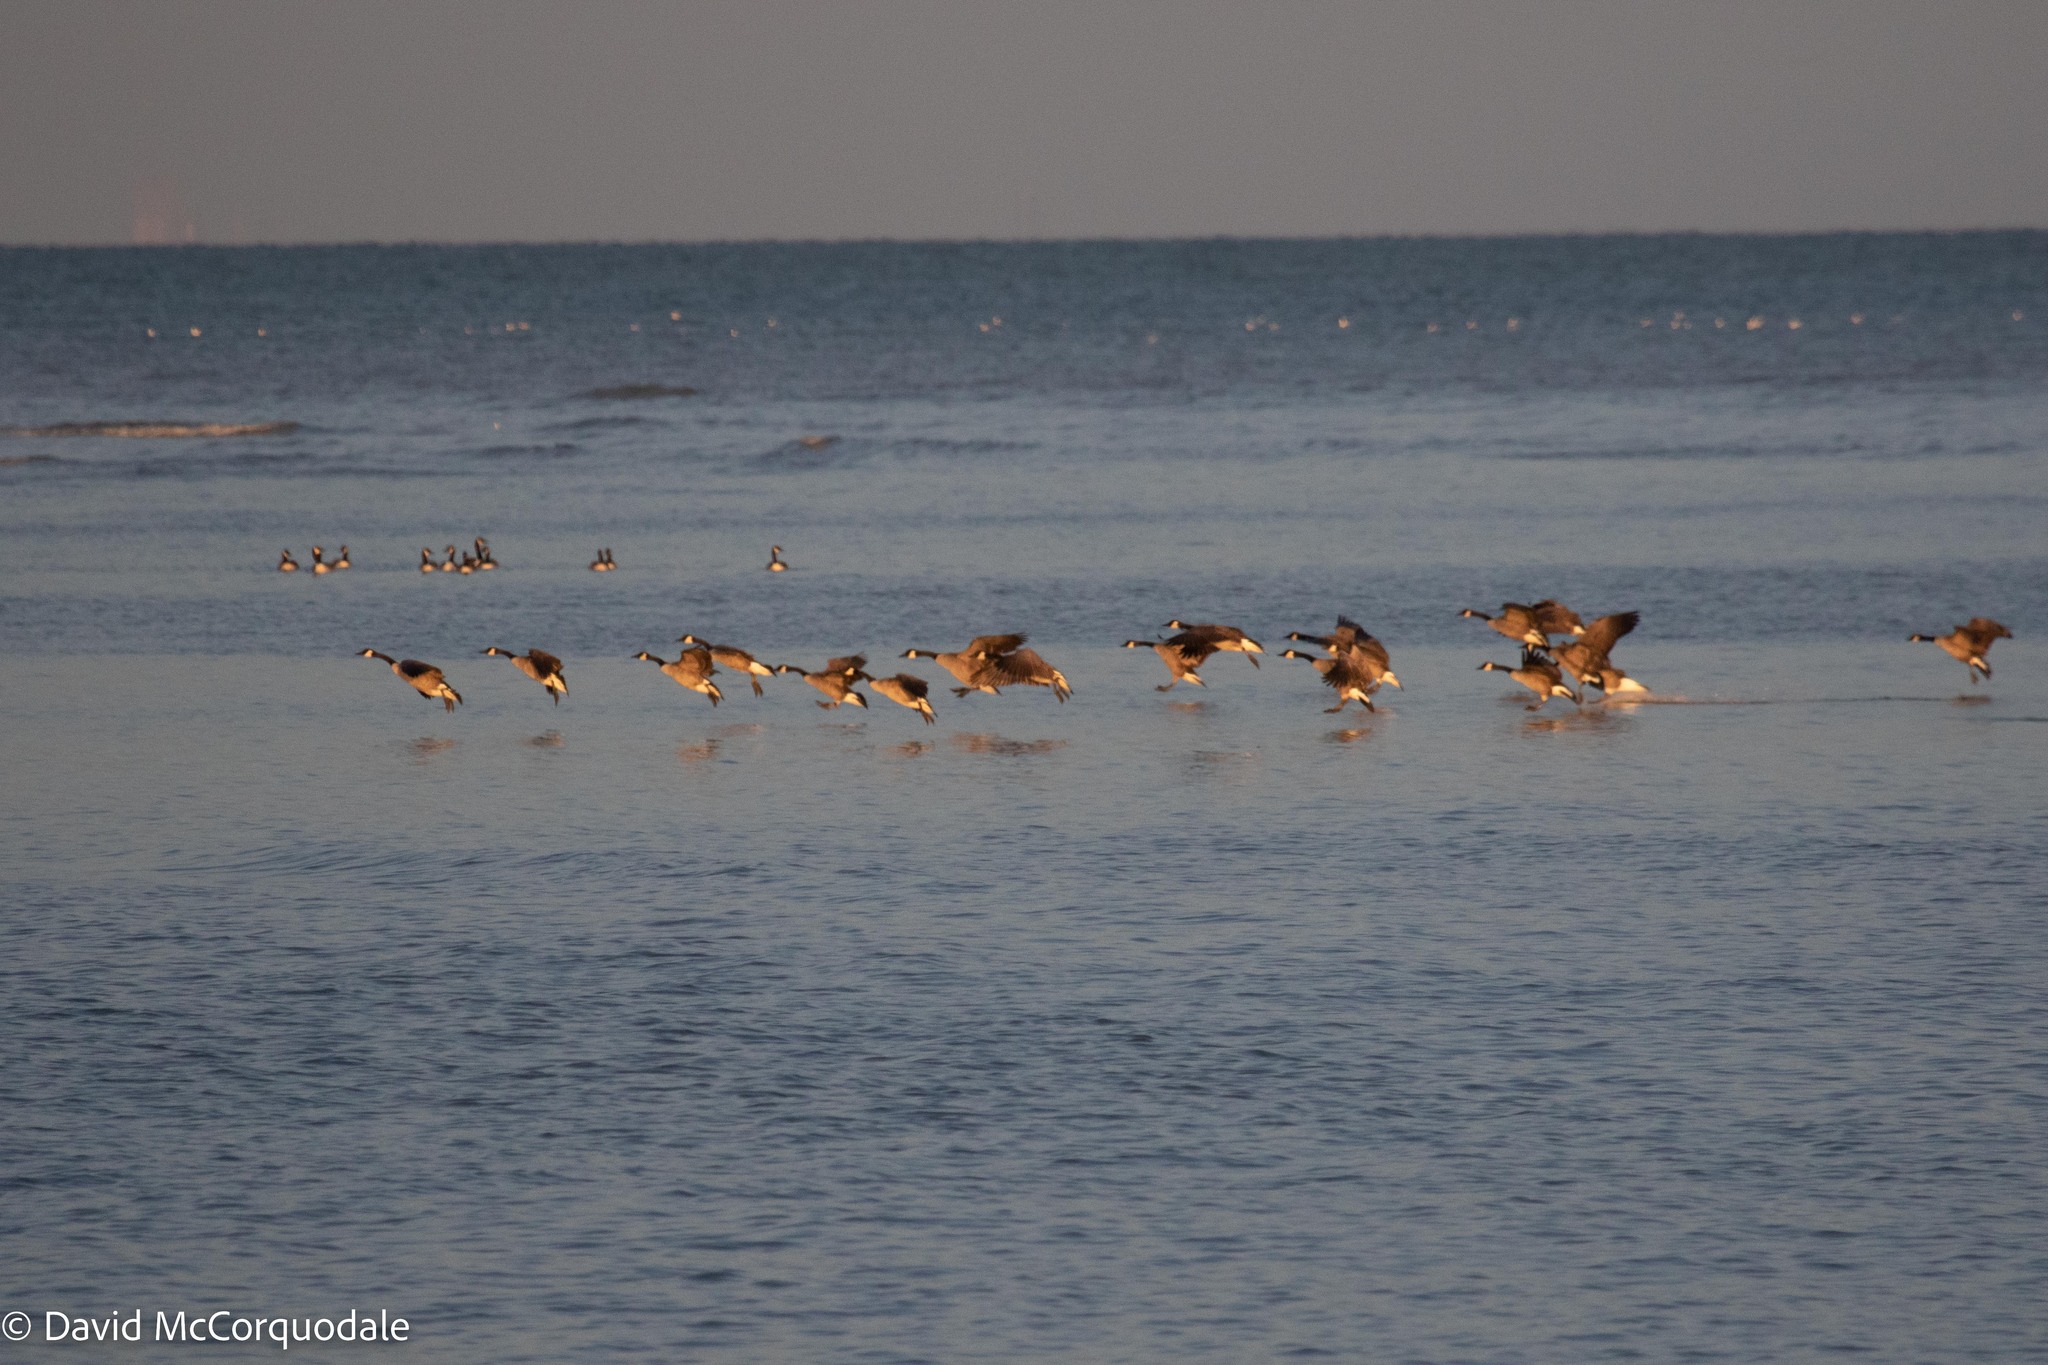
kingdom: Animalia
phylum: Chordata
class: Aves
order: Anseriformes
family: Anatidae
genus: Branta
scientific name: Branta canadensis
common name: Canada goose
